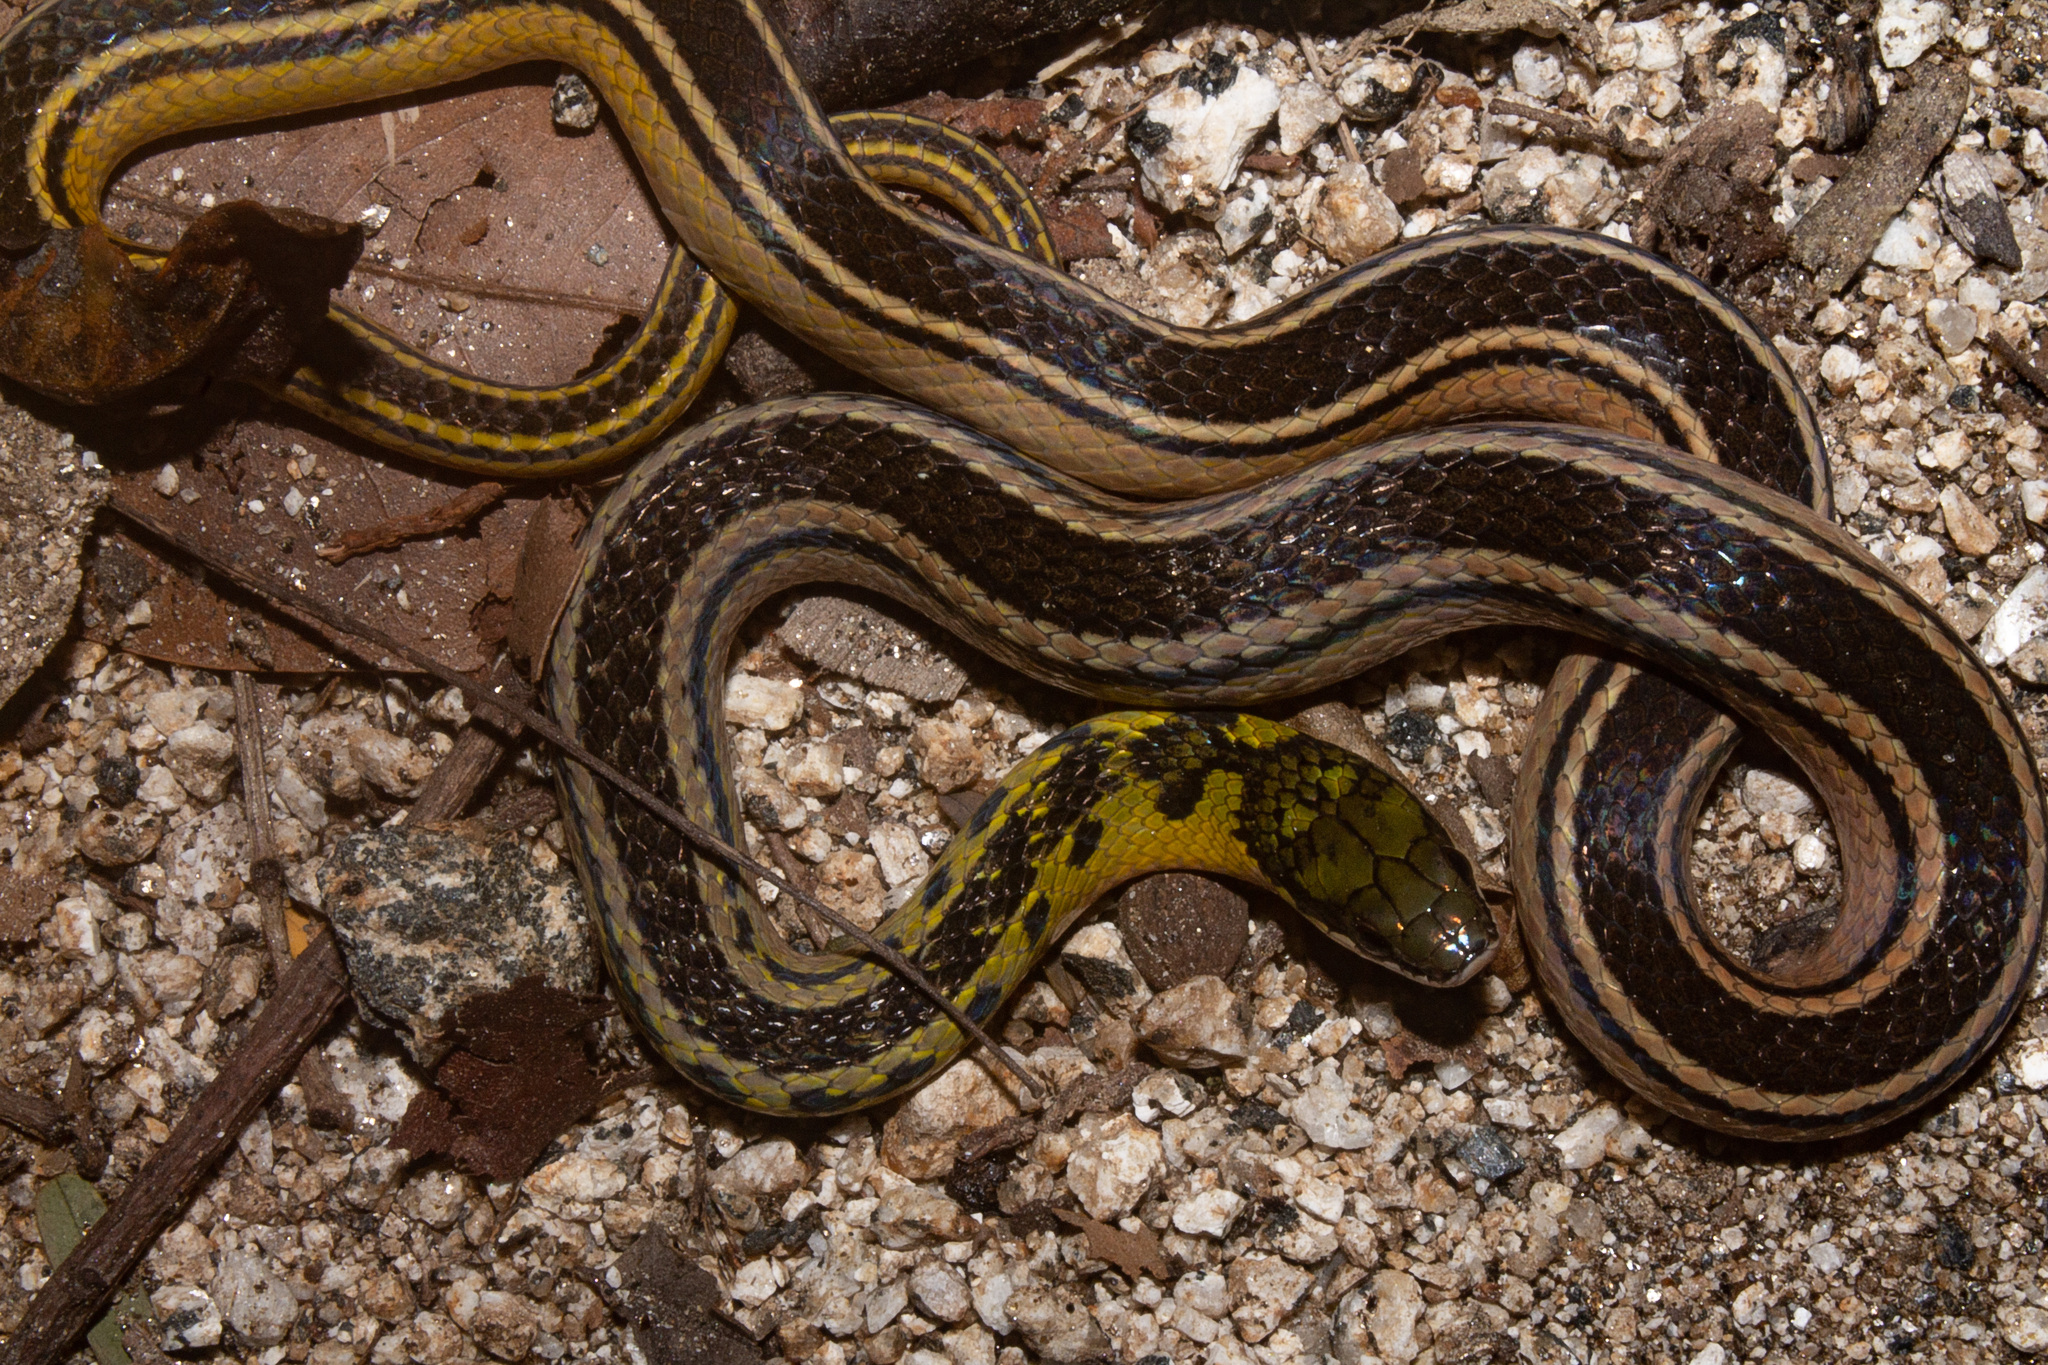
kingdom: Animalia
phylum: Chordata
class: Squamata
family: Colubridae
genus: Erythrolamprus
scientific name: Erythrolamprus melanotus
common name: Shaw's dark ground snake
